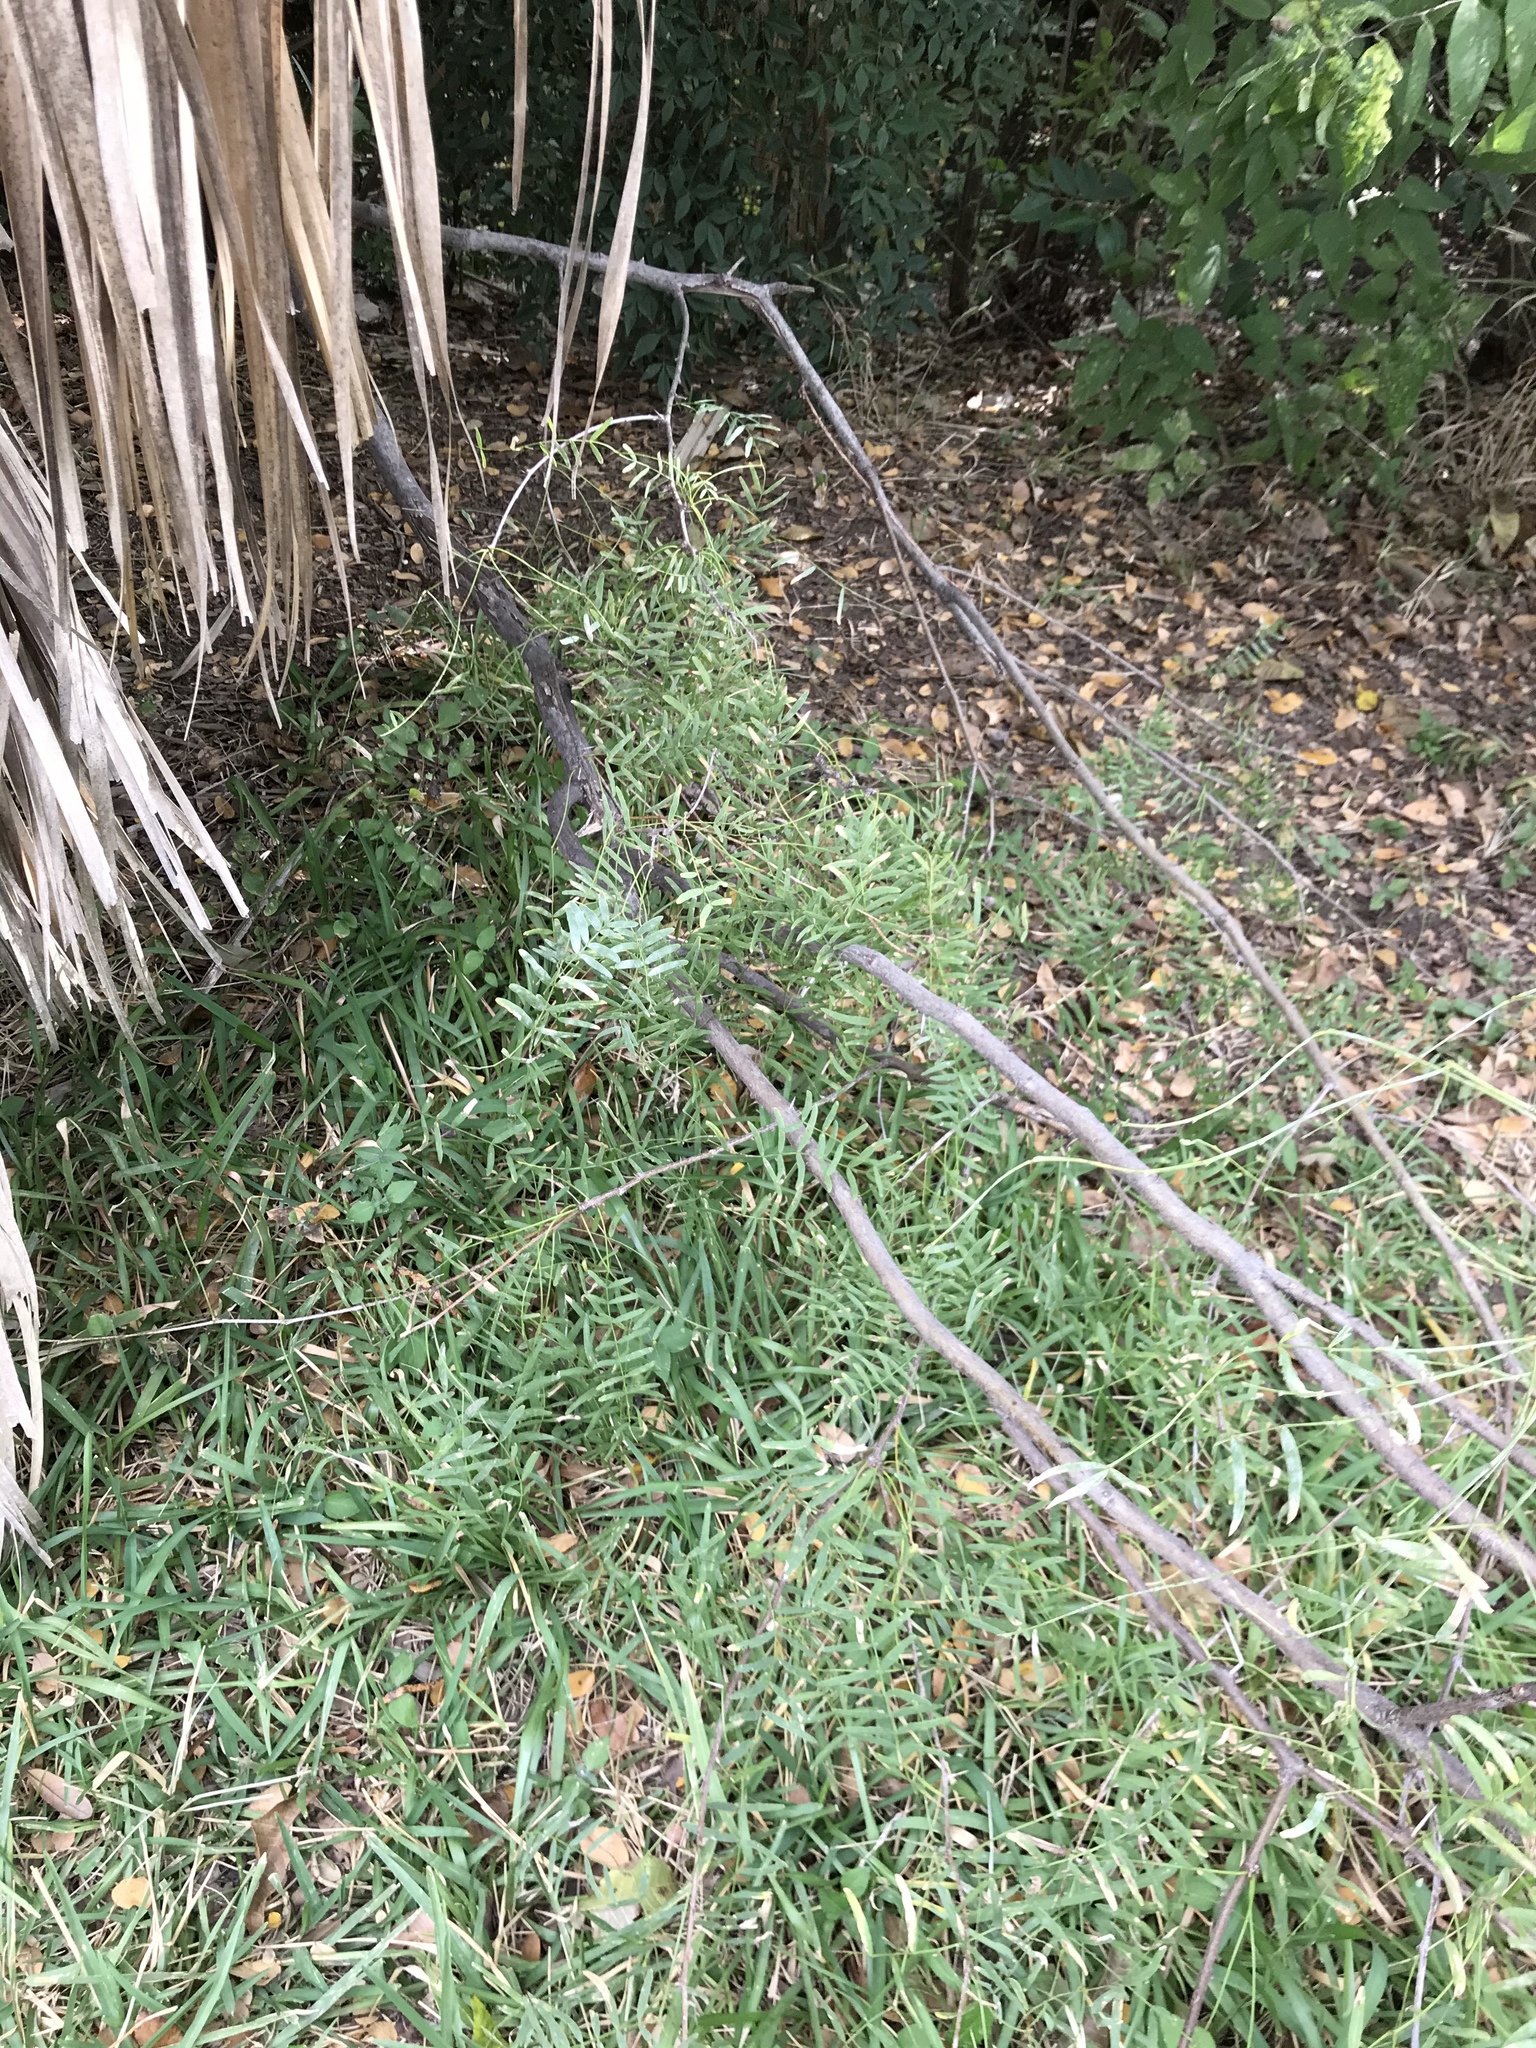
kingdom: Plantae
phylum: Tracheophyta
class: Magnoliopsida
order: Fabales
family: Fabaceae
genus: Prosopis
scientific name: Prosopis glandulosa
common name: Honey mesquite
